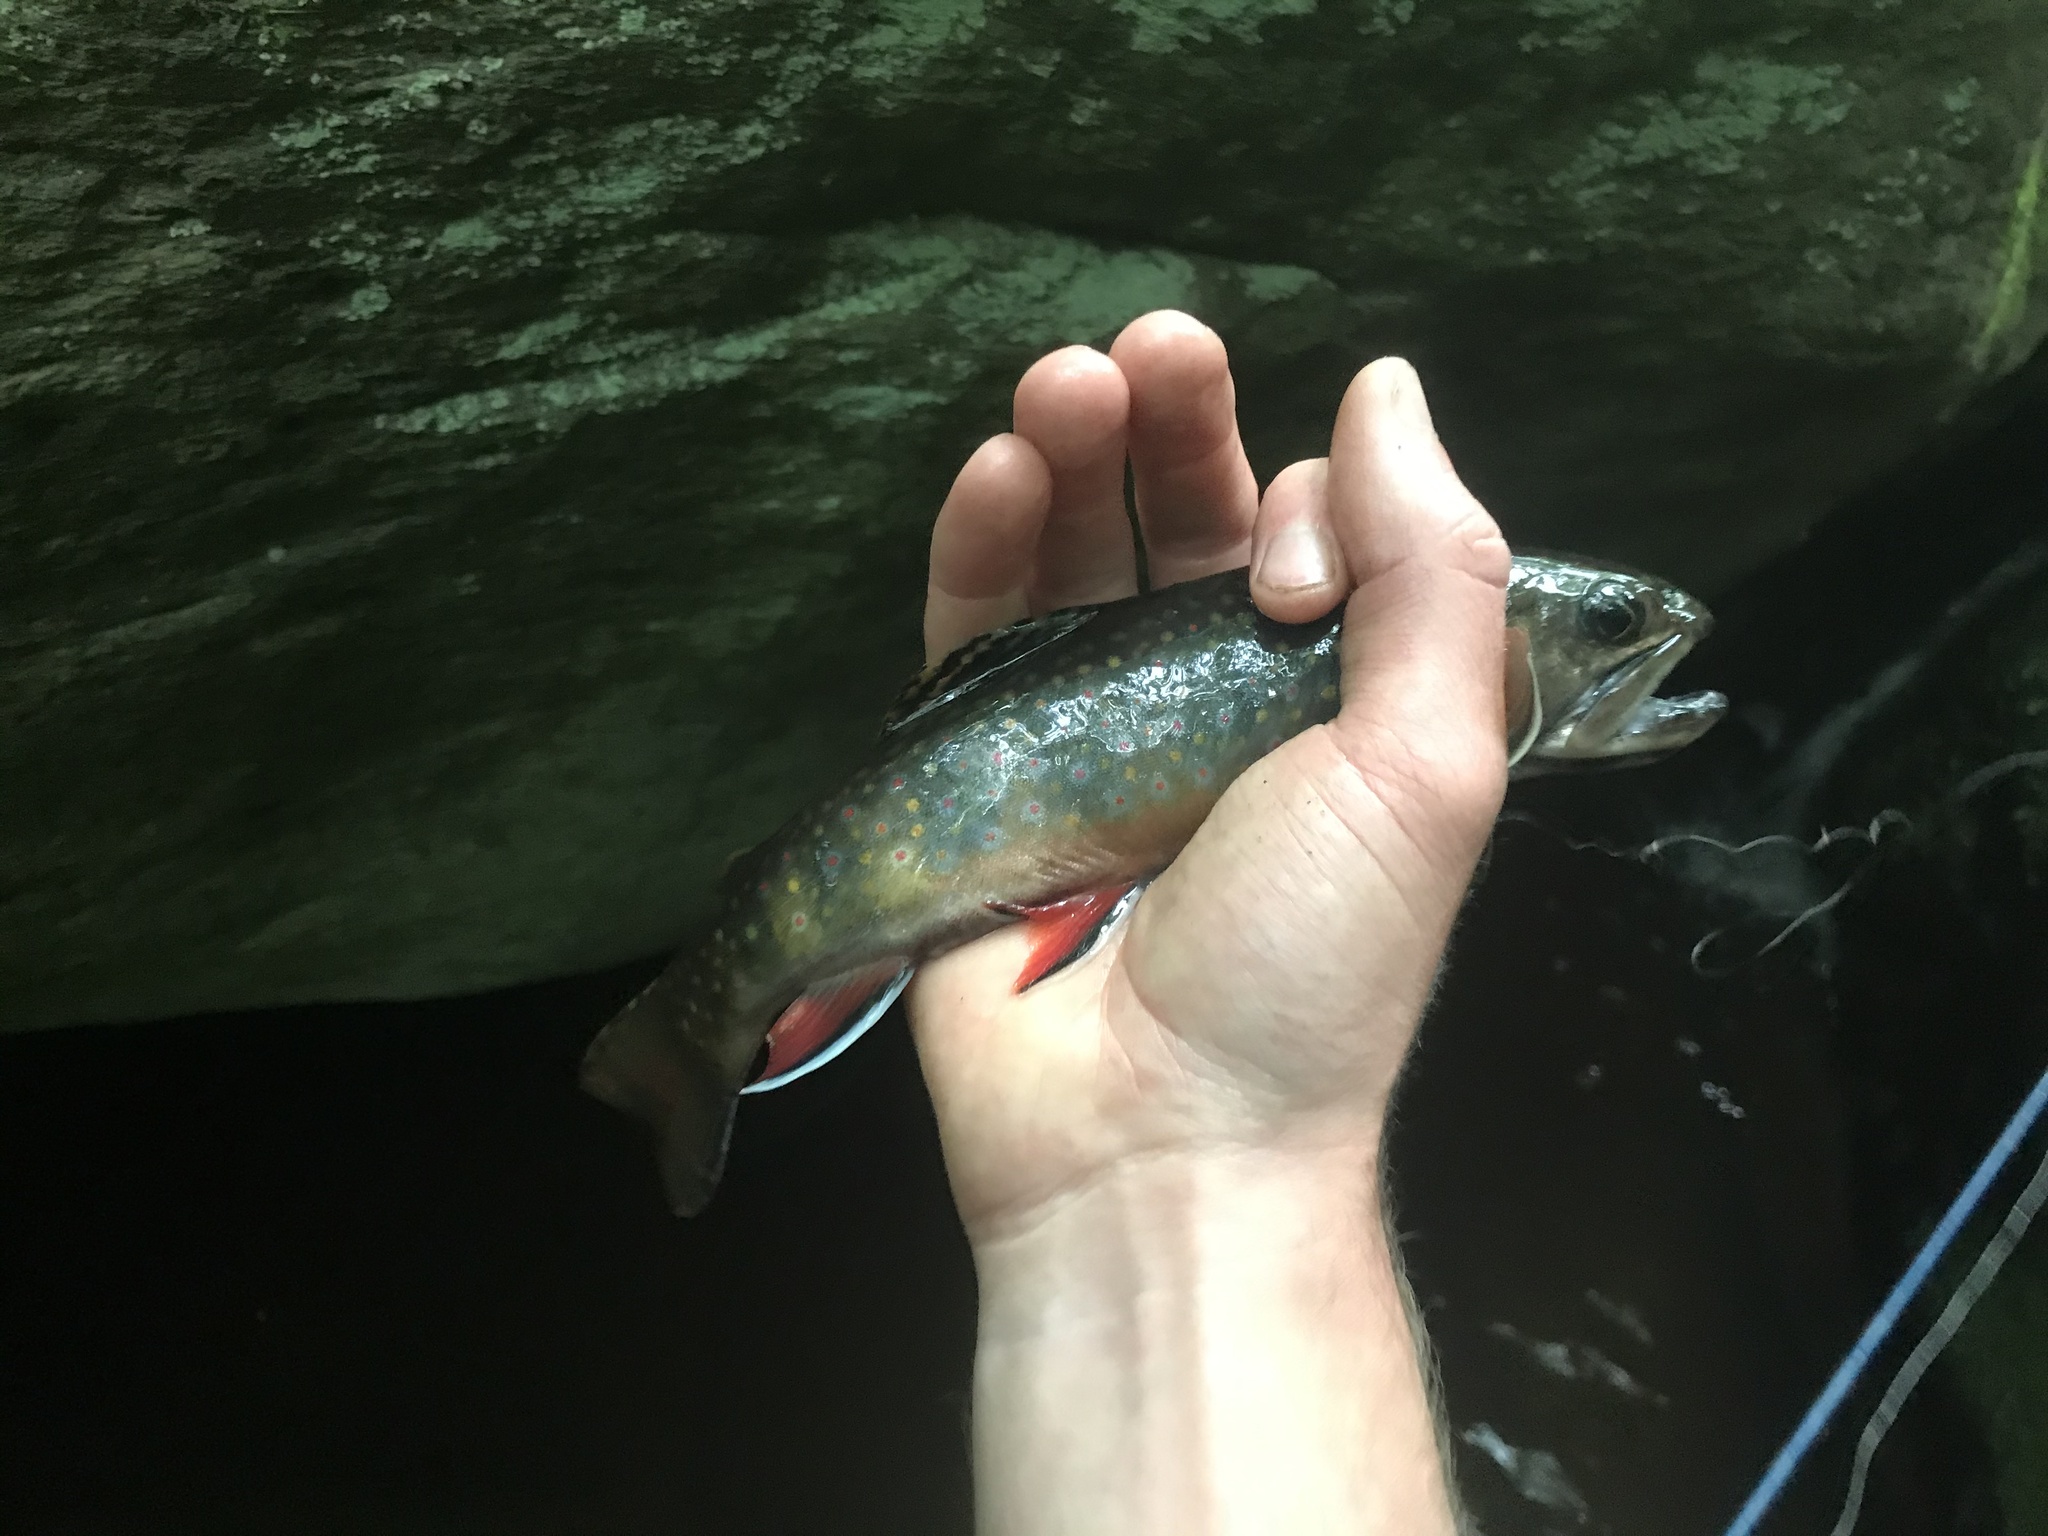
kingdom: Animalia
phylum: Chordata
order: Salmoniformes
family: Salmonidae
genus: Salvelinus
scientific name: Salvelinus fontinalis
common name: Brook trout
